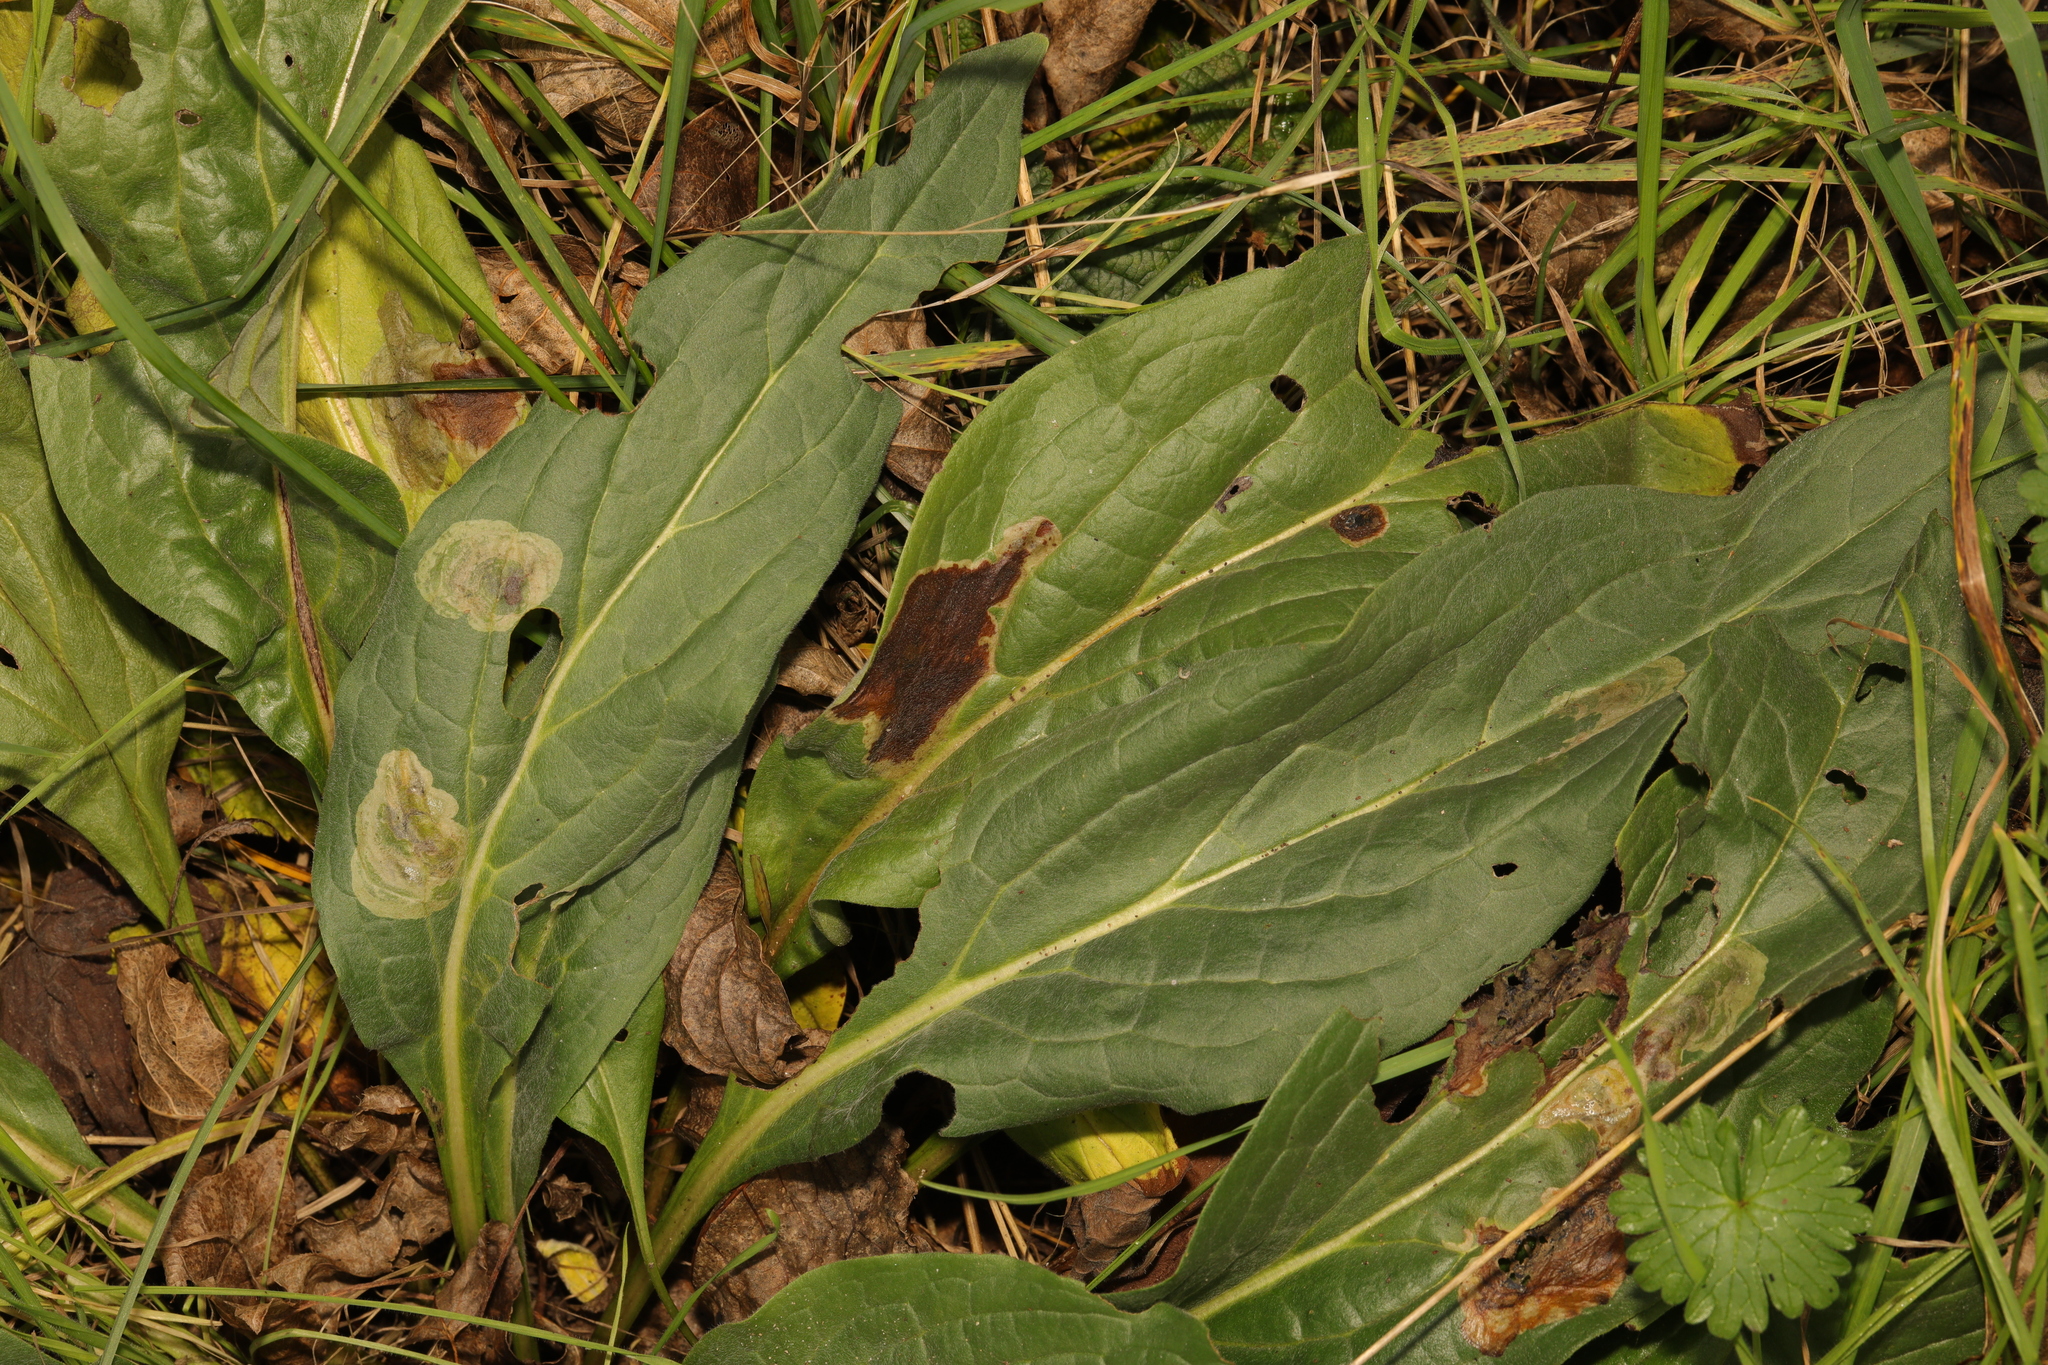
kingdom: Plantae
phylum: Tracheophyta
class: Magnoliopsida
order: Boraginales
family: Boraginaceae
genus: Cynoglossum
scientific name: Cynoglossum officinale
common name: Hound's-tongue
